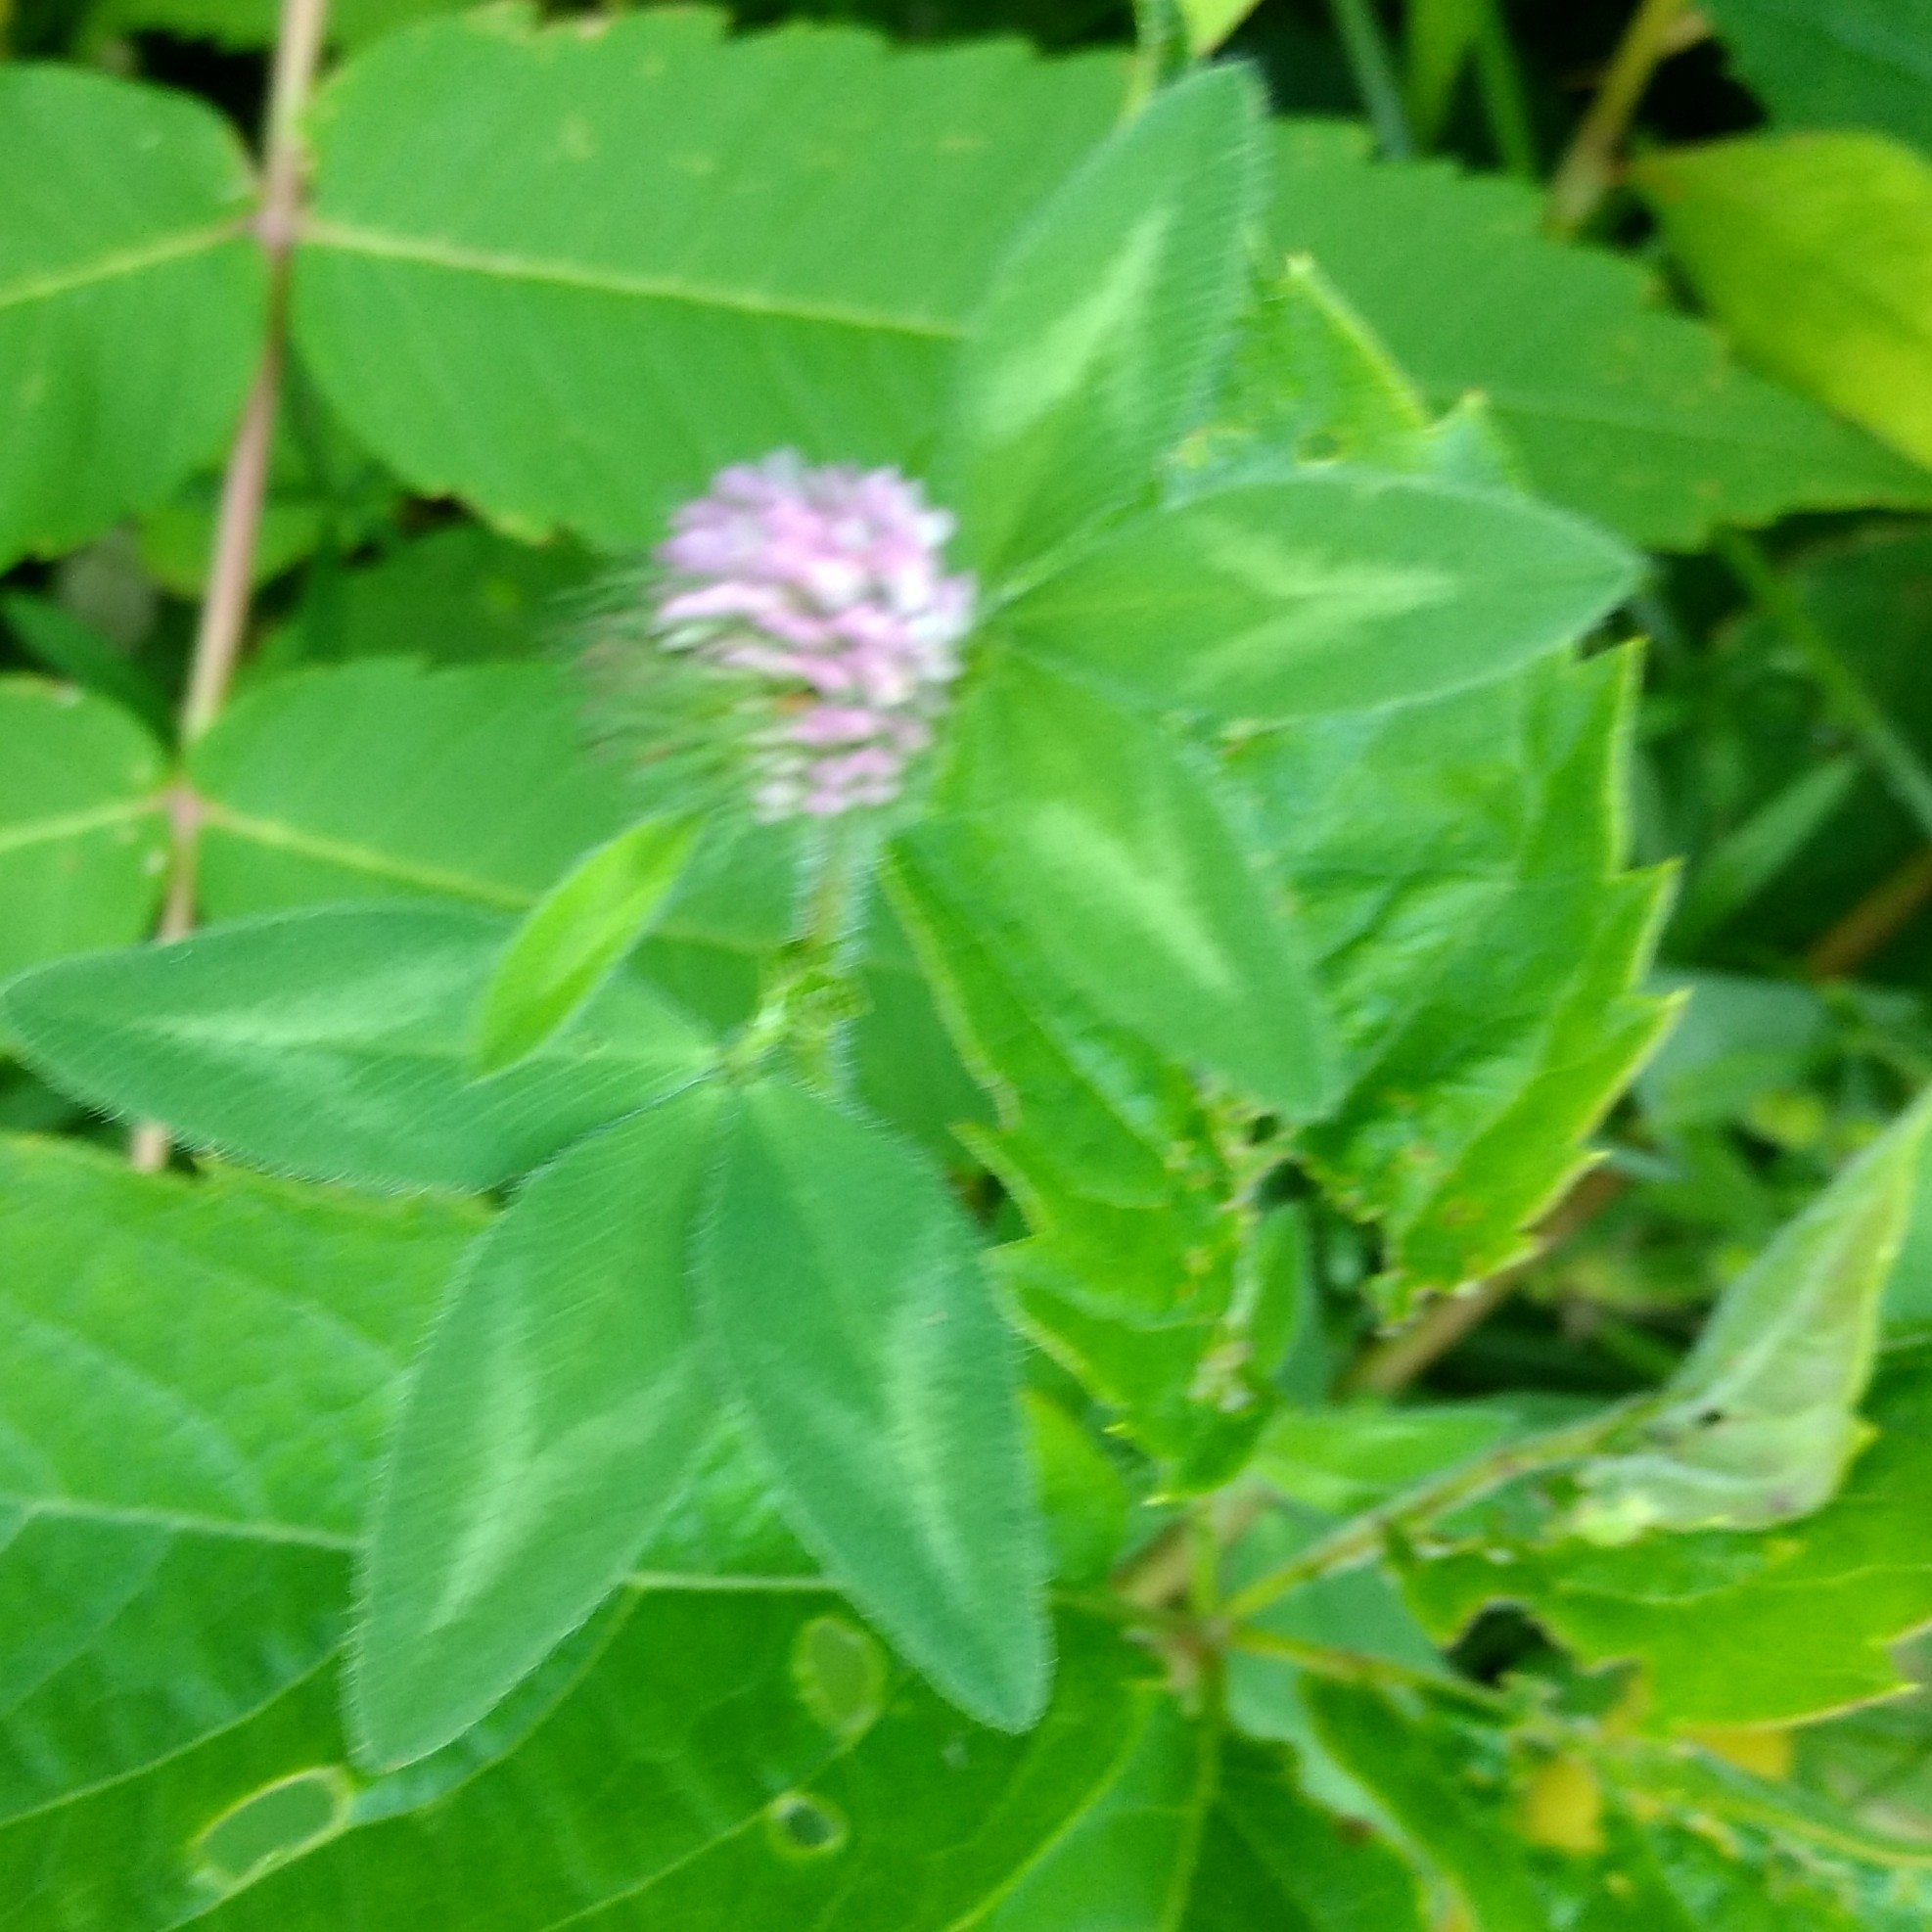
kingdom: Plantae
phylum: Tracheophyta
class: Magnoliopsida
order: Fabales
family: Fabaceae
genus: Trifolium
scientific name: Trifolium pratense
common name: Red clover
